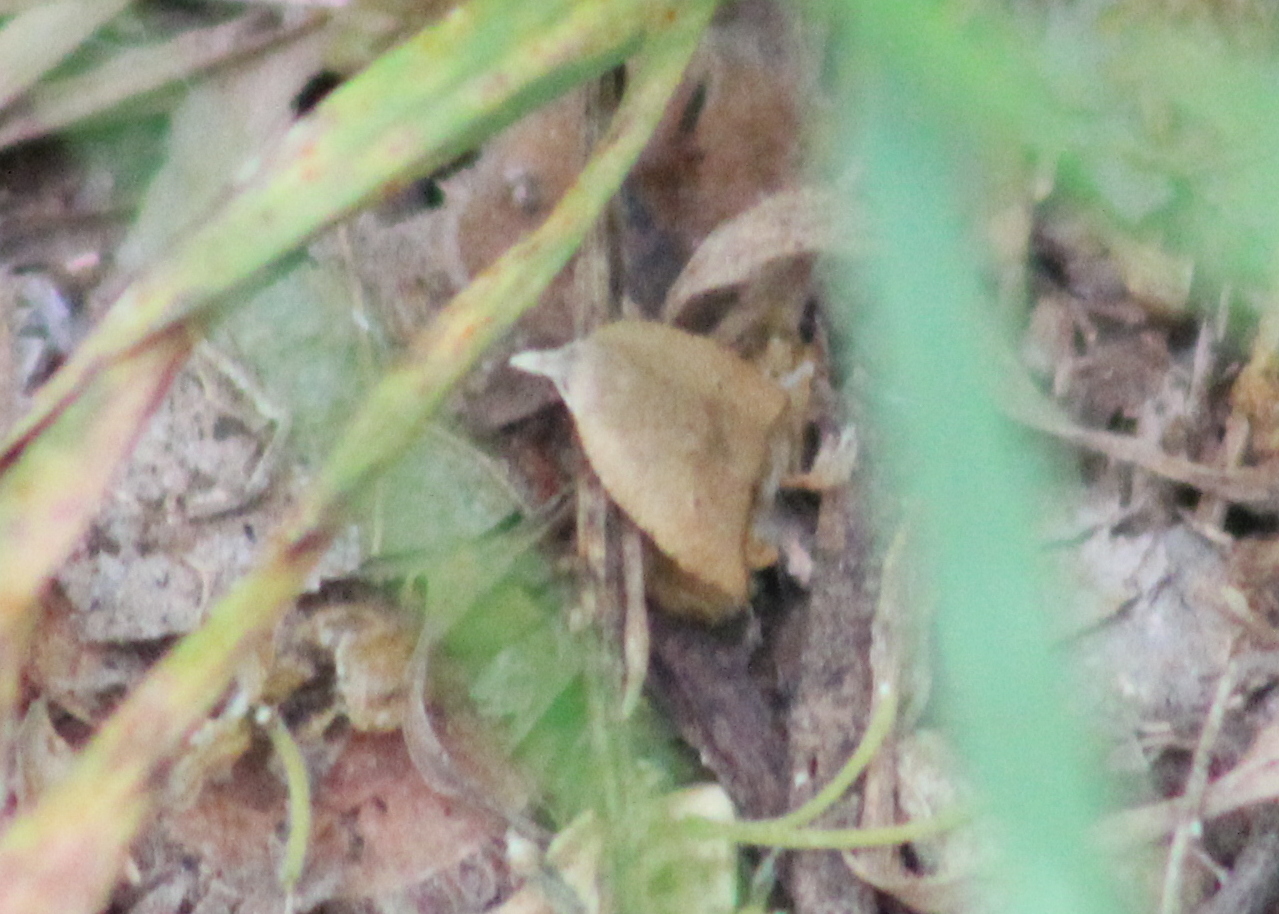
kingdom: Animalia
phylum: Arthropoda
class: Insecta
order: Lepidoptera
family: Tortricidae
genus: Coelostathma
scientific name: Coelostathma discopunctana
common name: Batman moth
